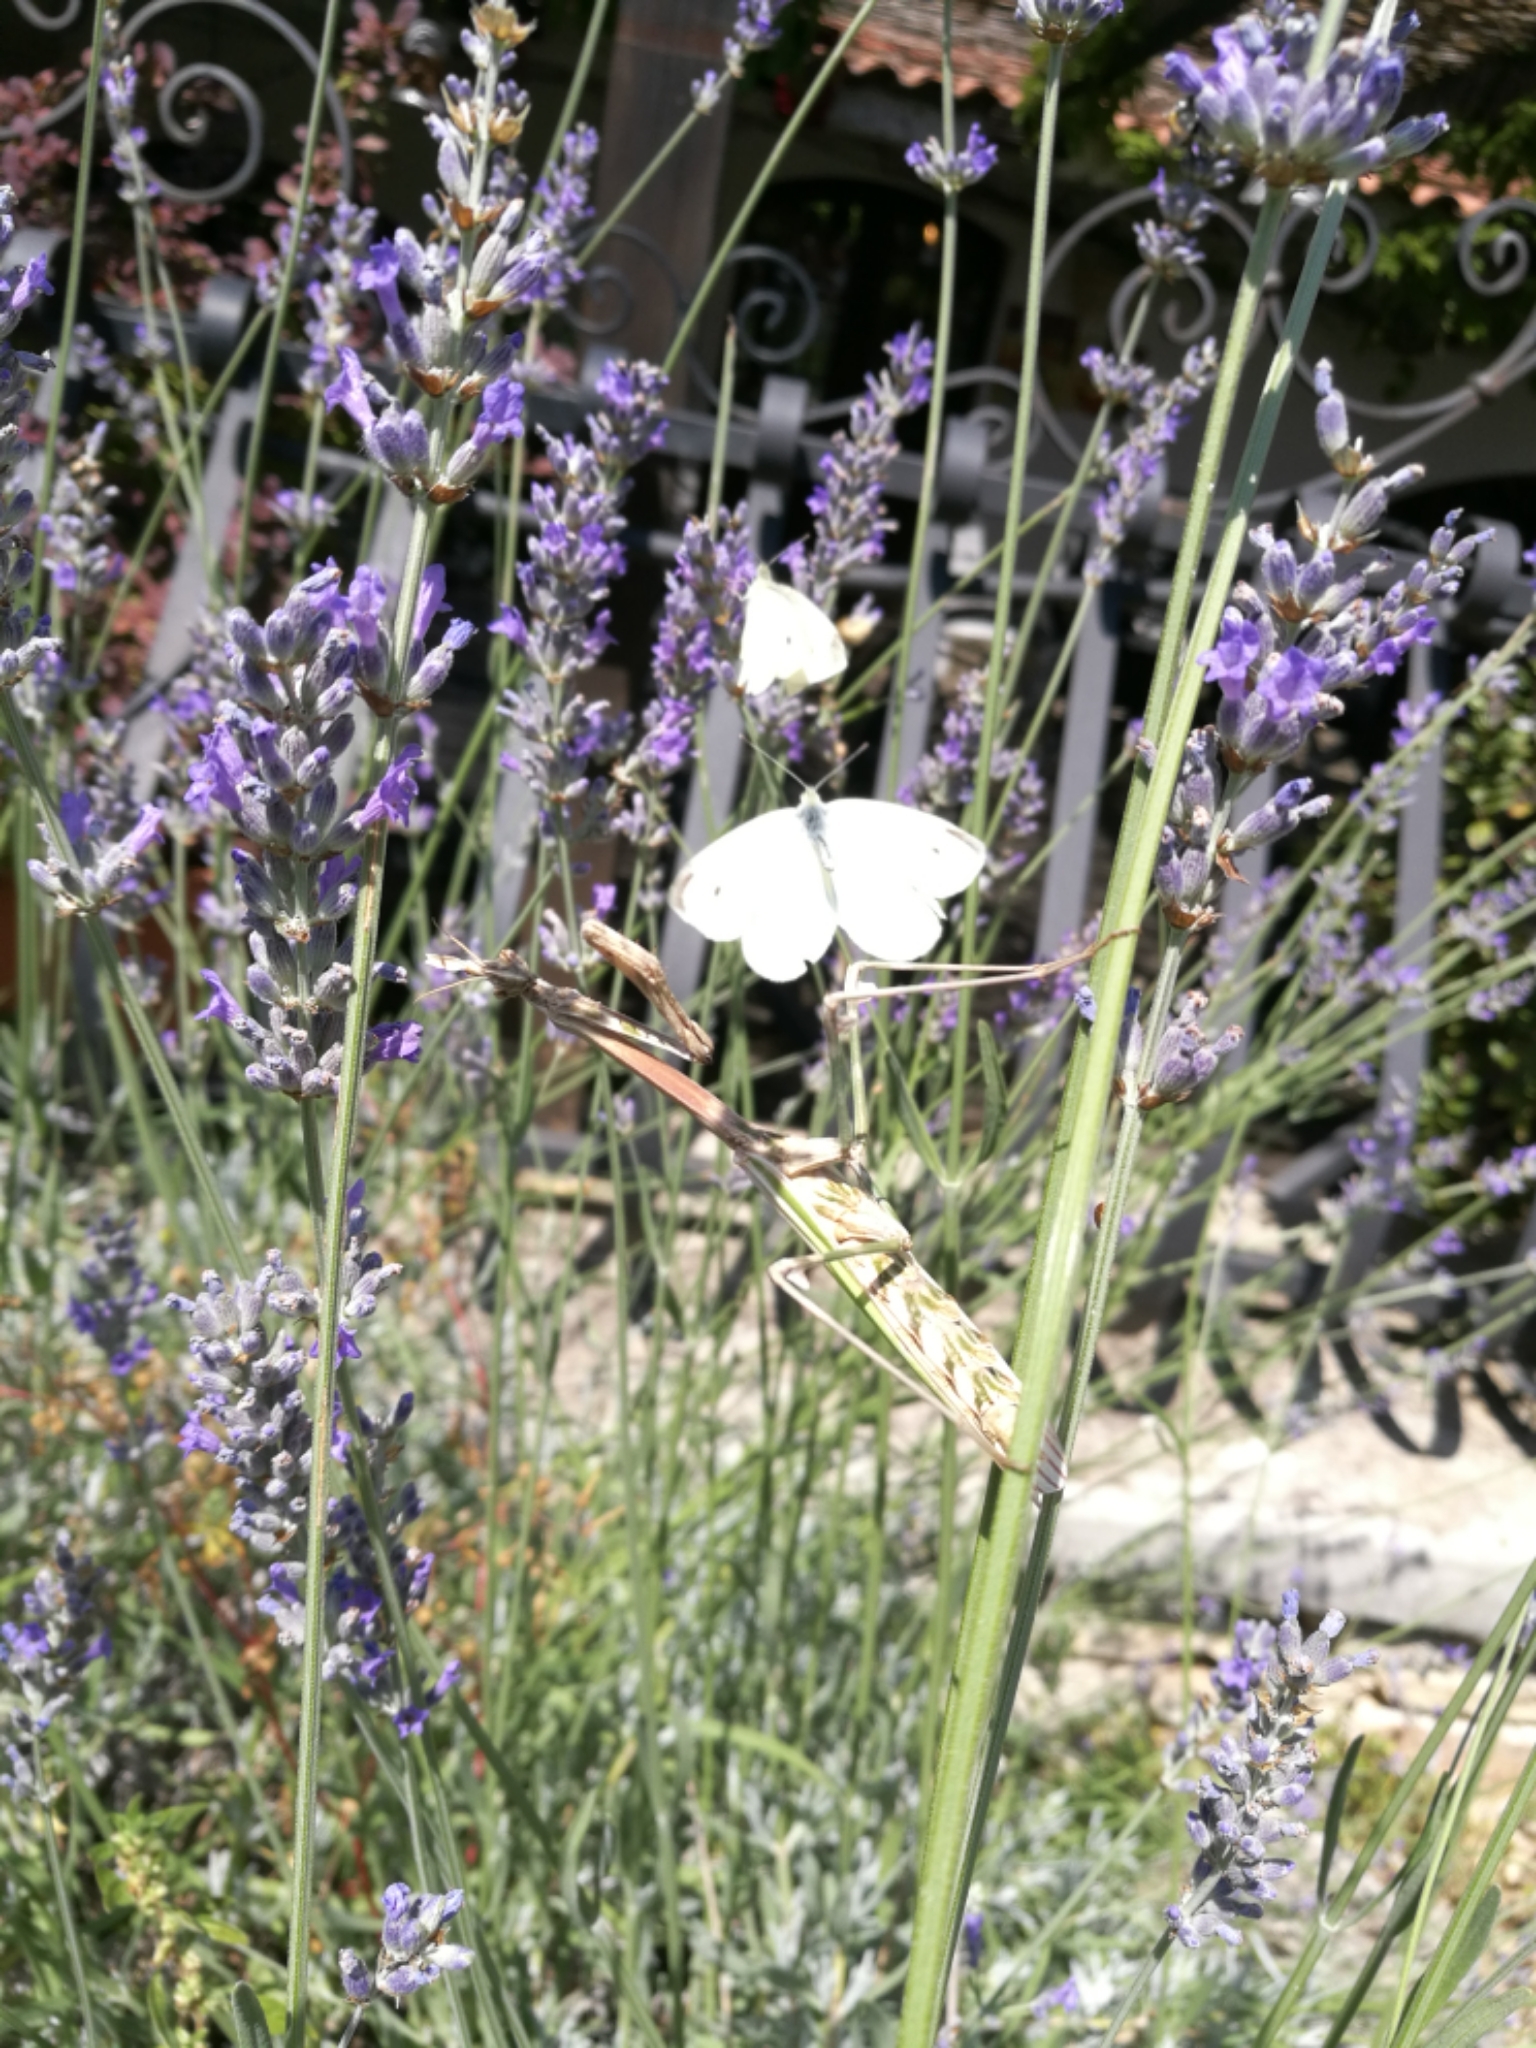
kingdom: Animalia
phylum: Arthropoda
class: Insecta
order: Mantodea
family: Empusidae
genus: Empusa
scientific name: Empusa pennata
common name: Conehead mantis
